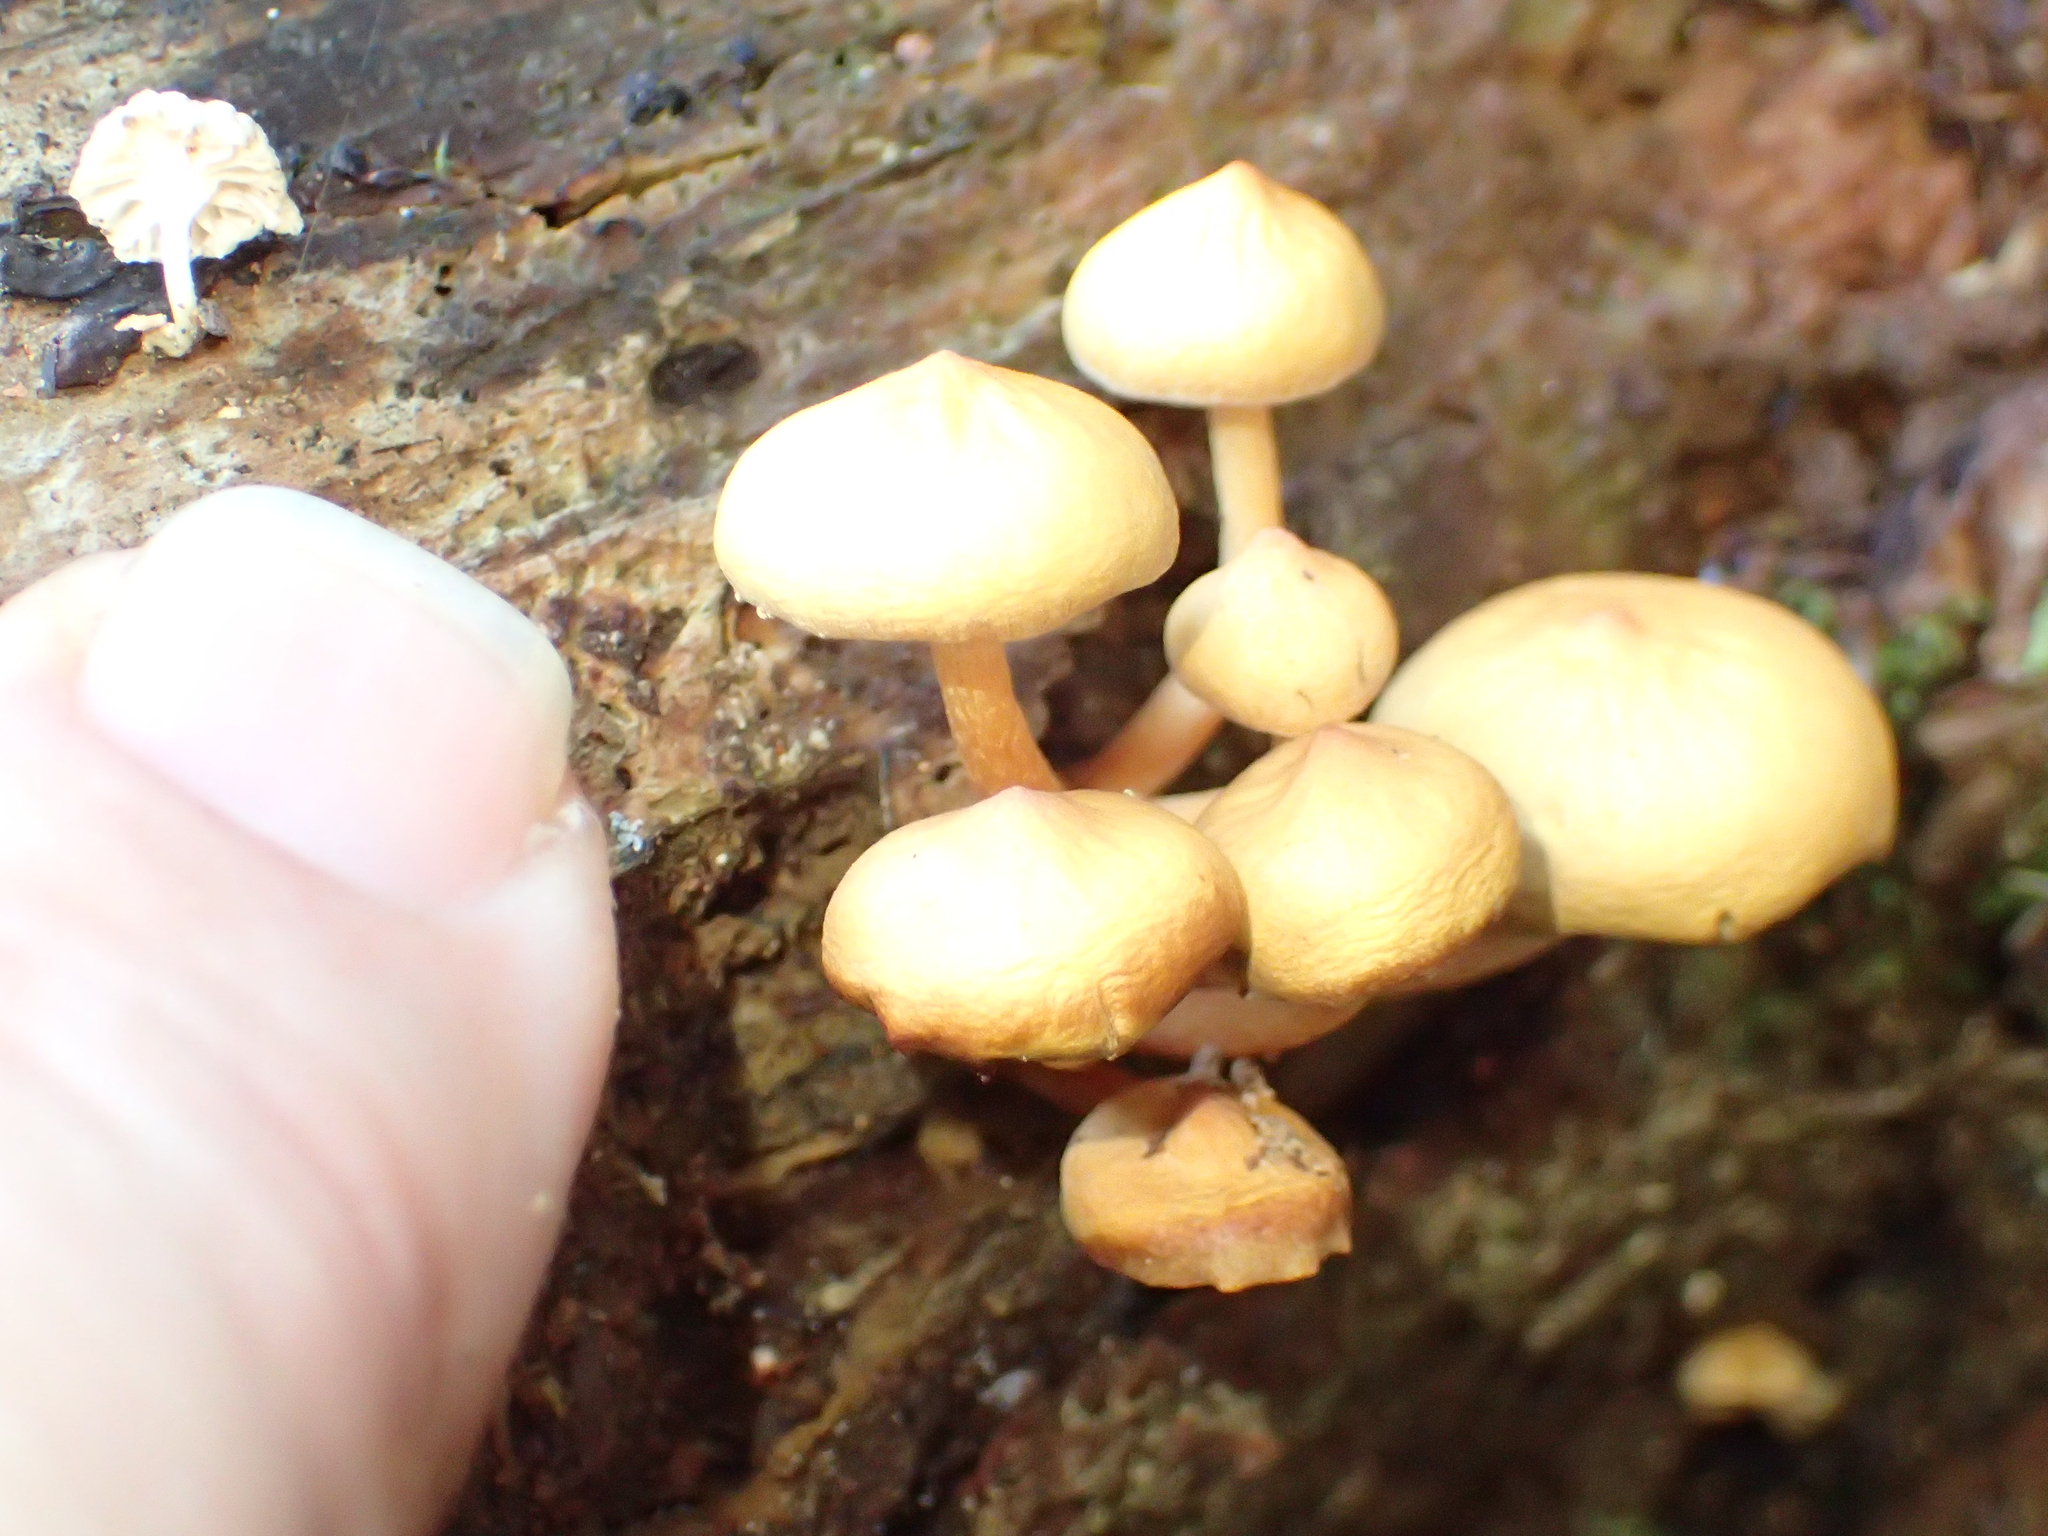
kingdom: Fungi
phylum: Basidiomycota
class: Agaricomycetes
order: Agaricales
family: Strophariaceae
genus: Hypholoma
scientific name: Hypholoma acutum
